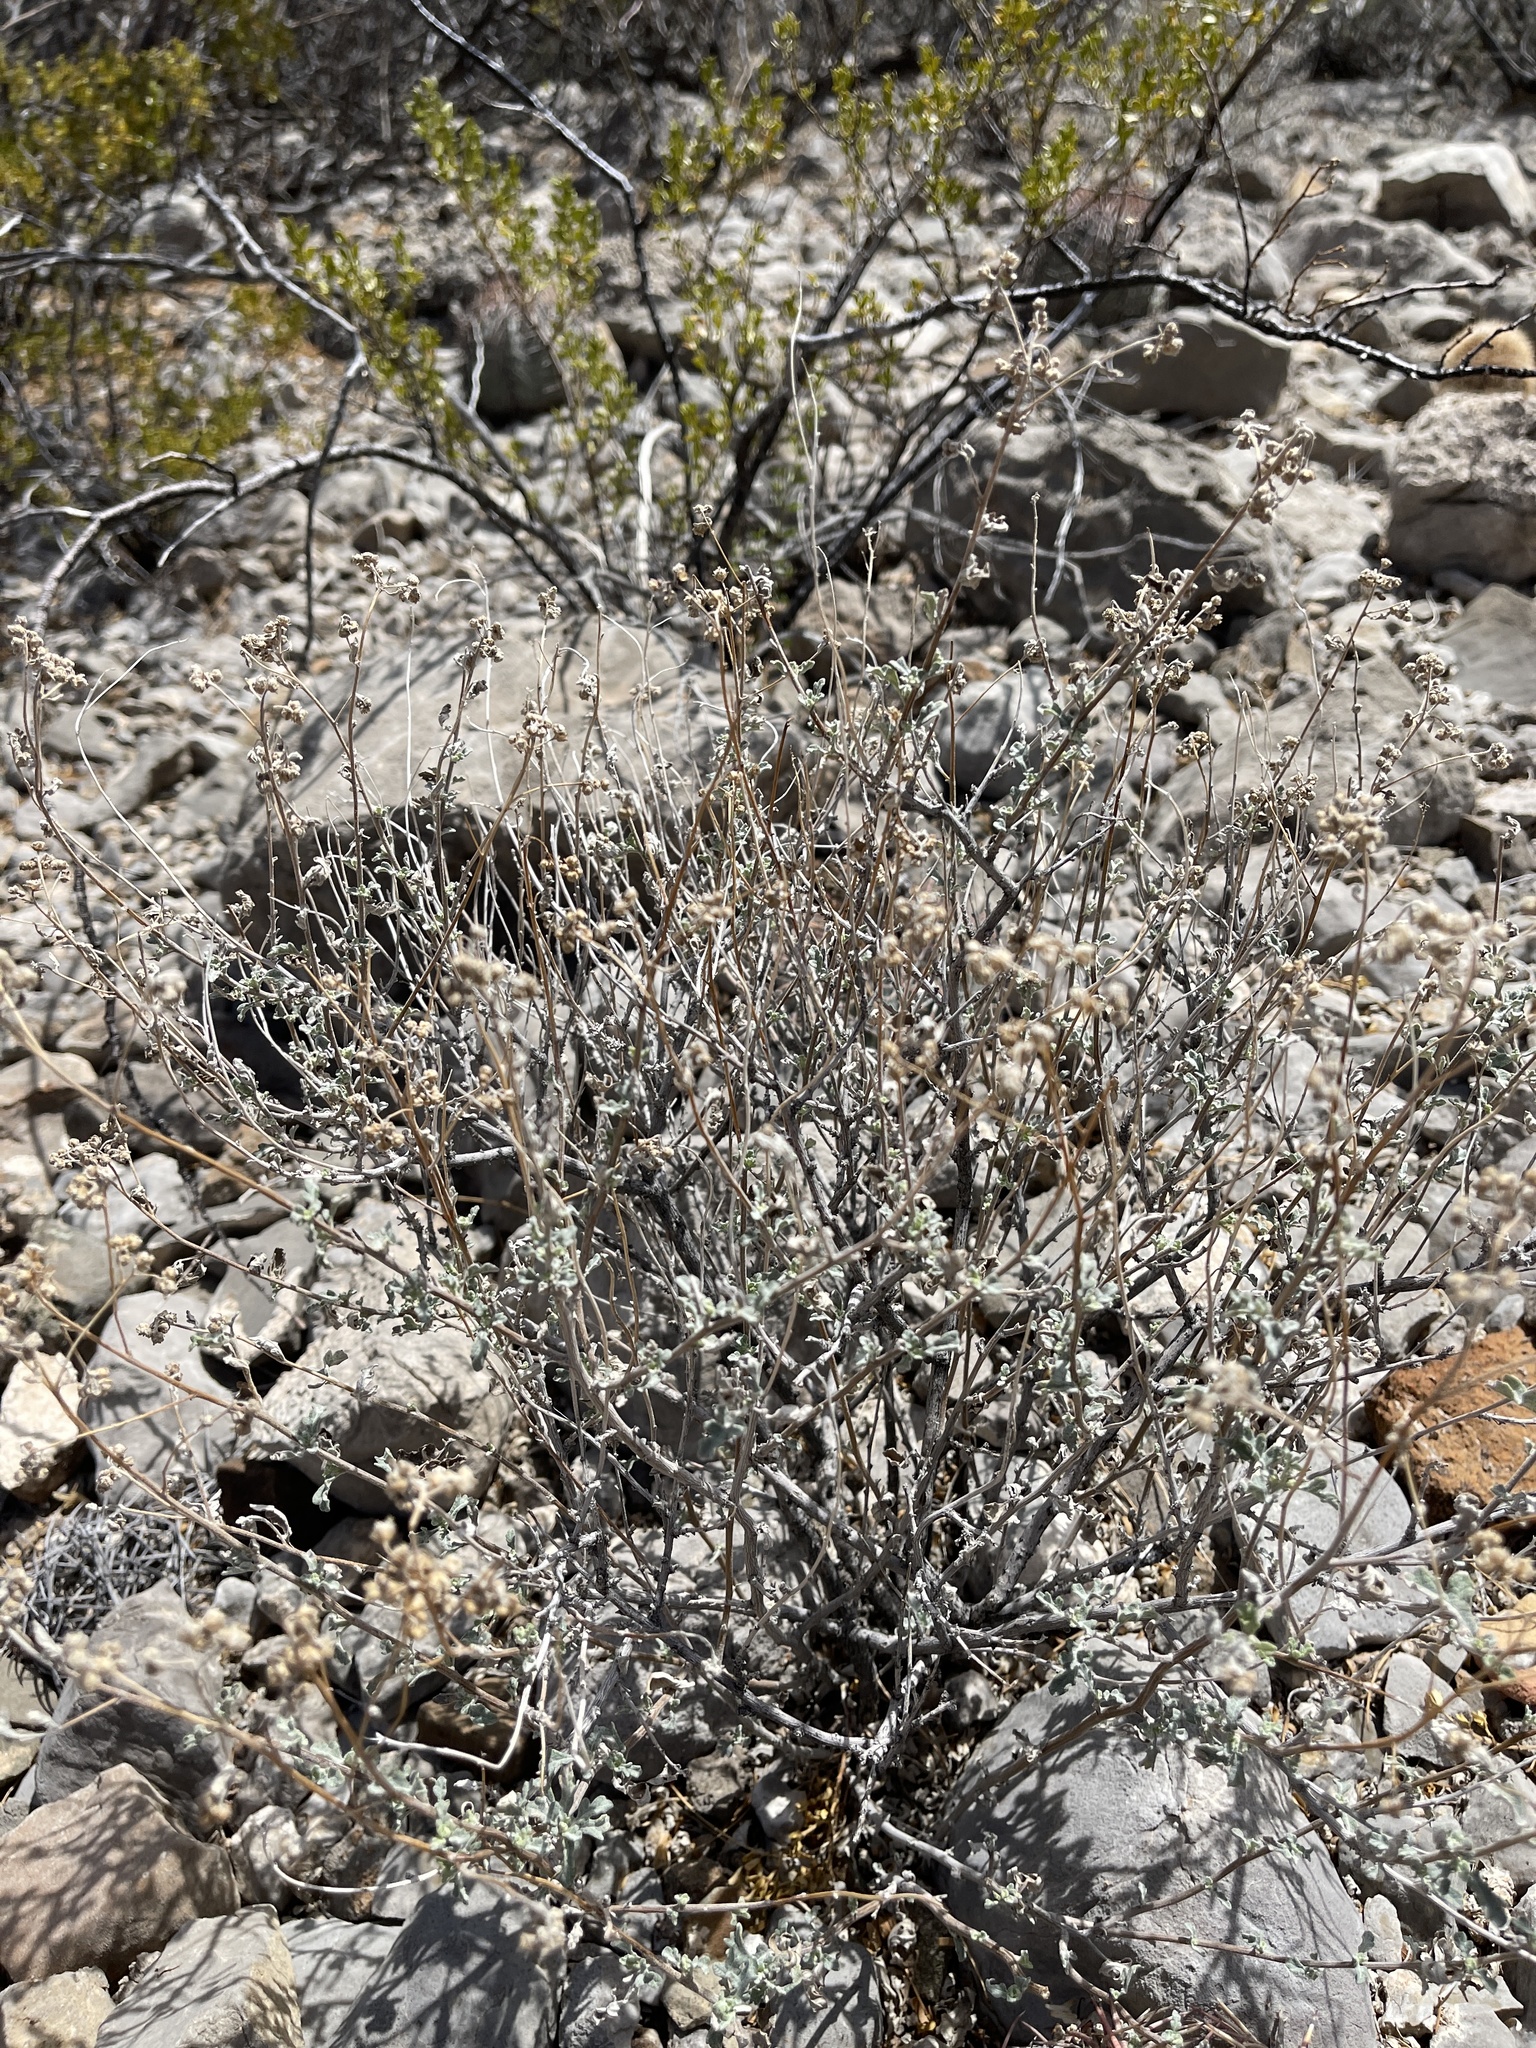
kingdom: Plantae
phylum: Tracheophyta
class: Magnoliopsida
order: Asterales
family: Asteraceae
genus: Parthenium
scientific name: Parthenium incanum
